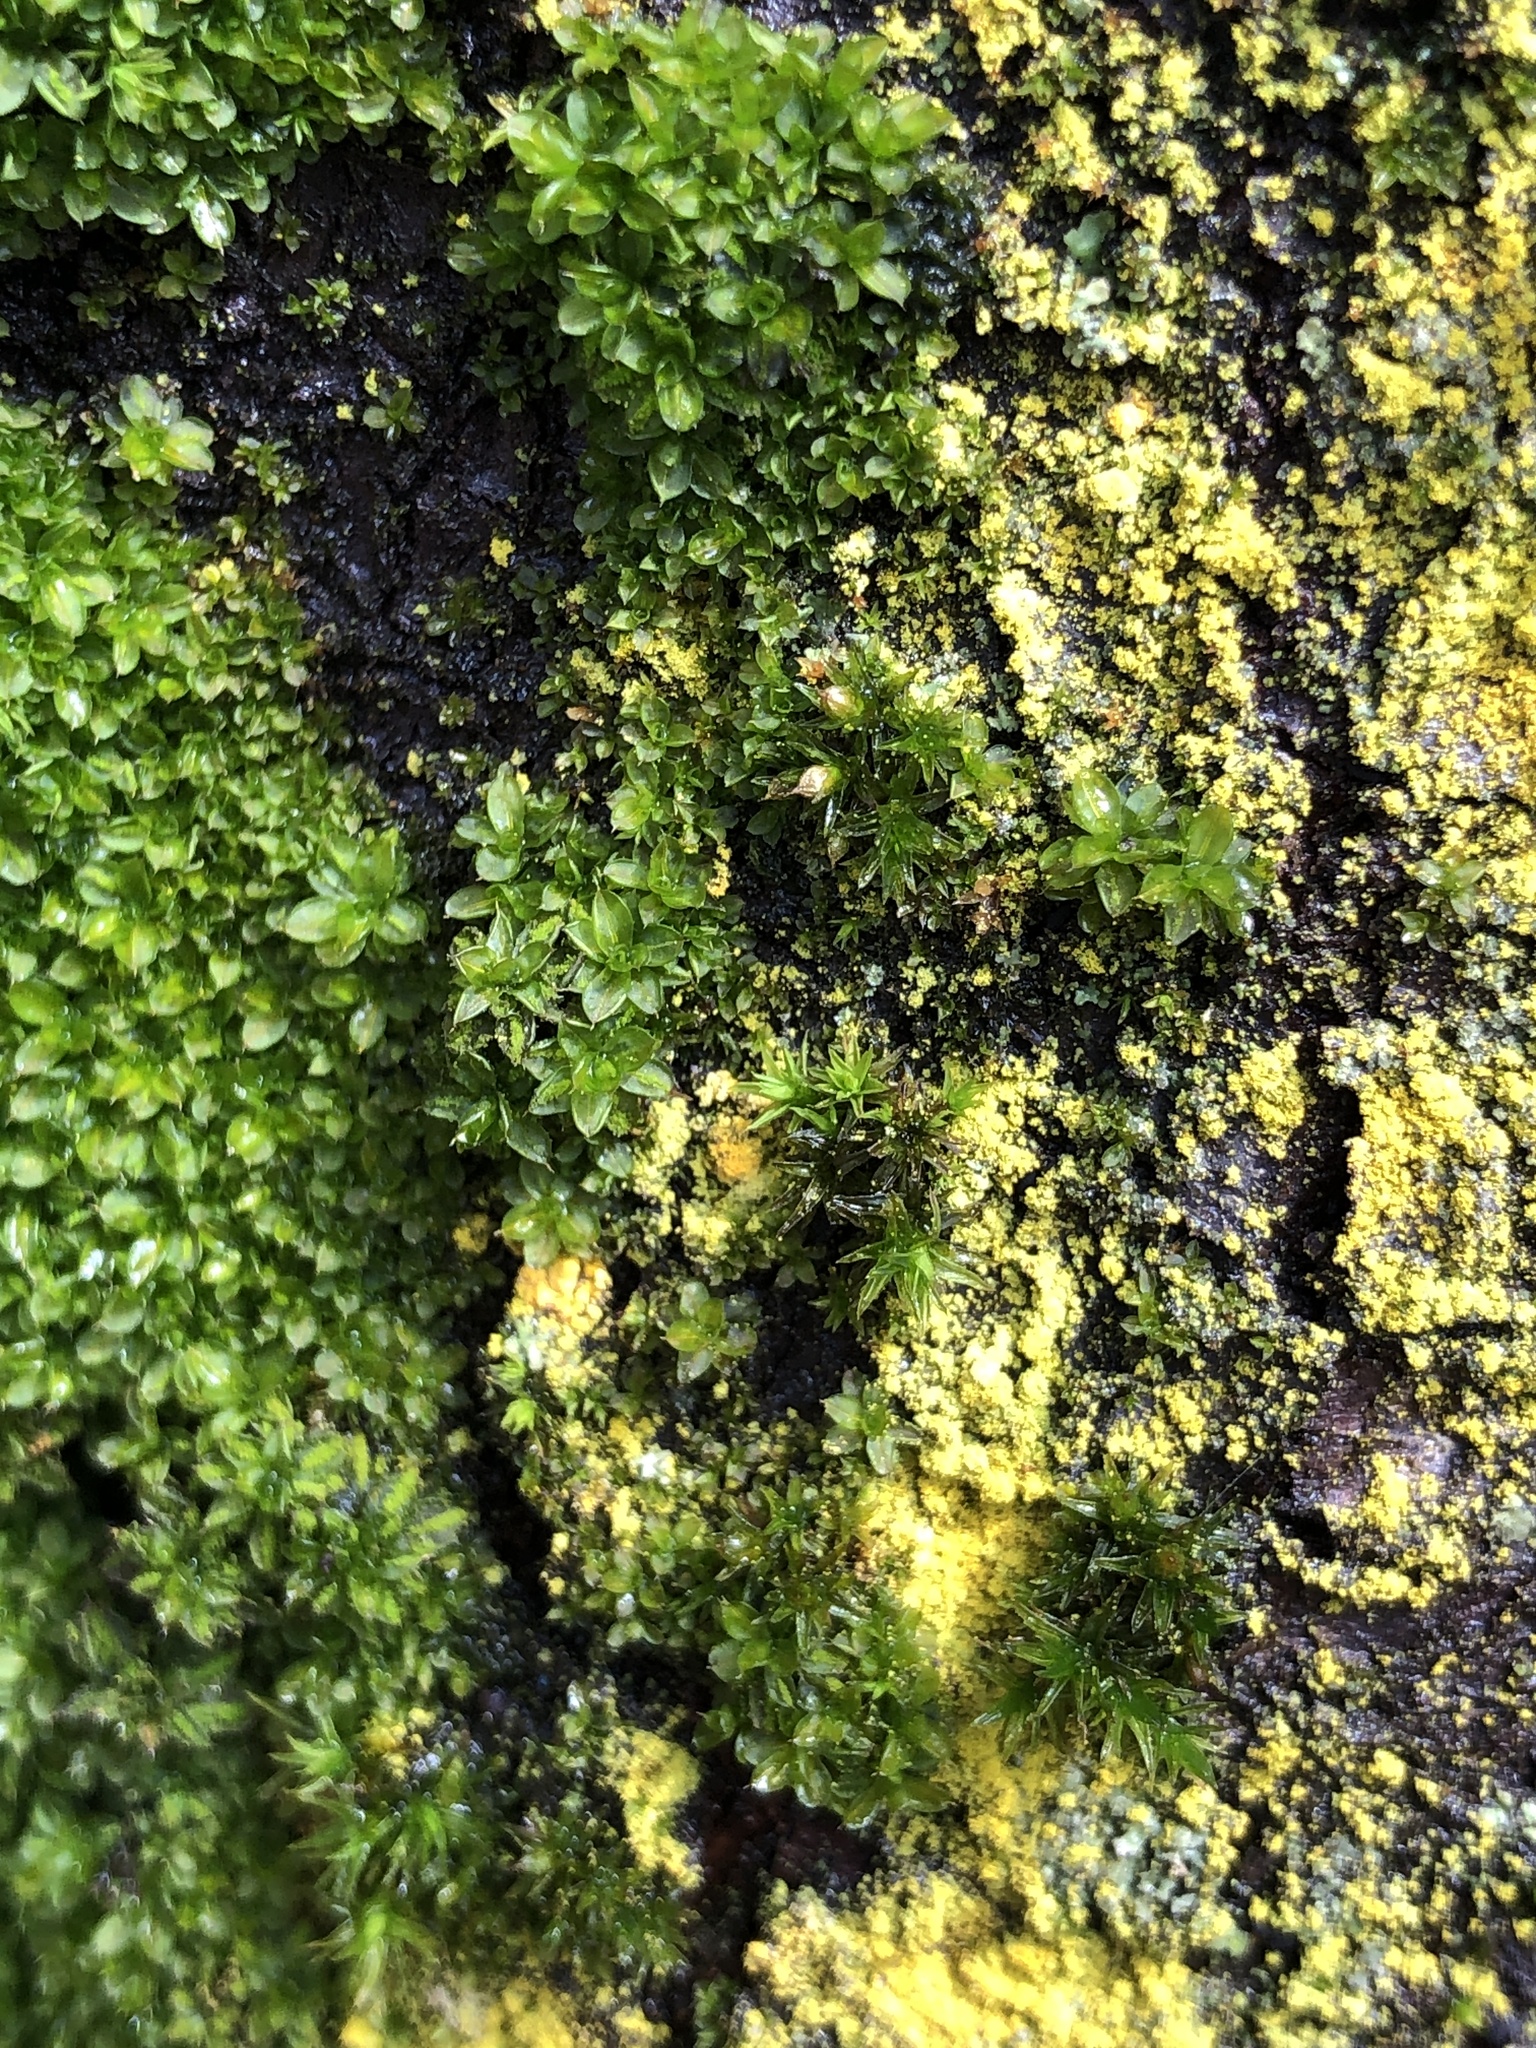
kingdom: Plantae
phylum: Bryophyta
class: Bryopsida
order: Pottiales
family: Pottiaceae
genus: Syntrichia
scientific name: Syntrichia papillosa
